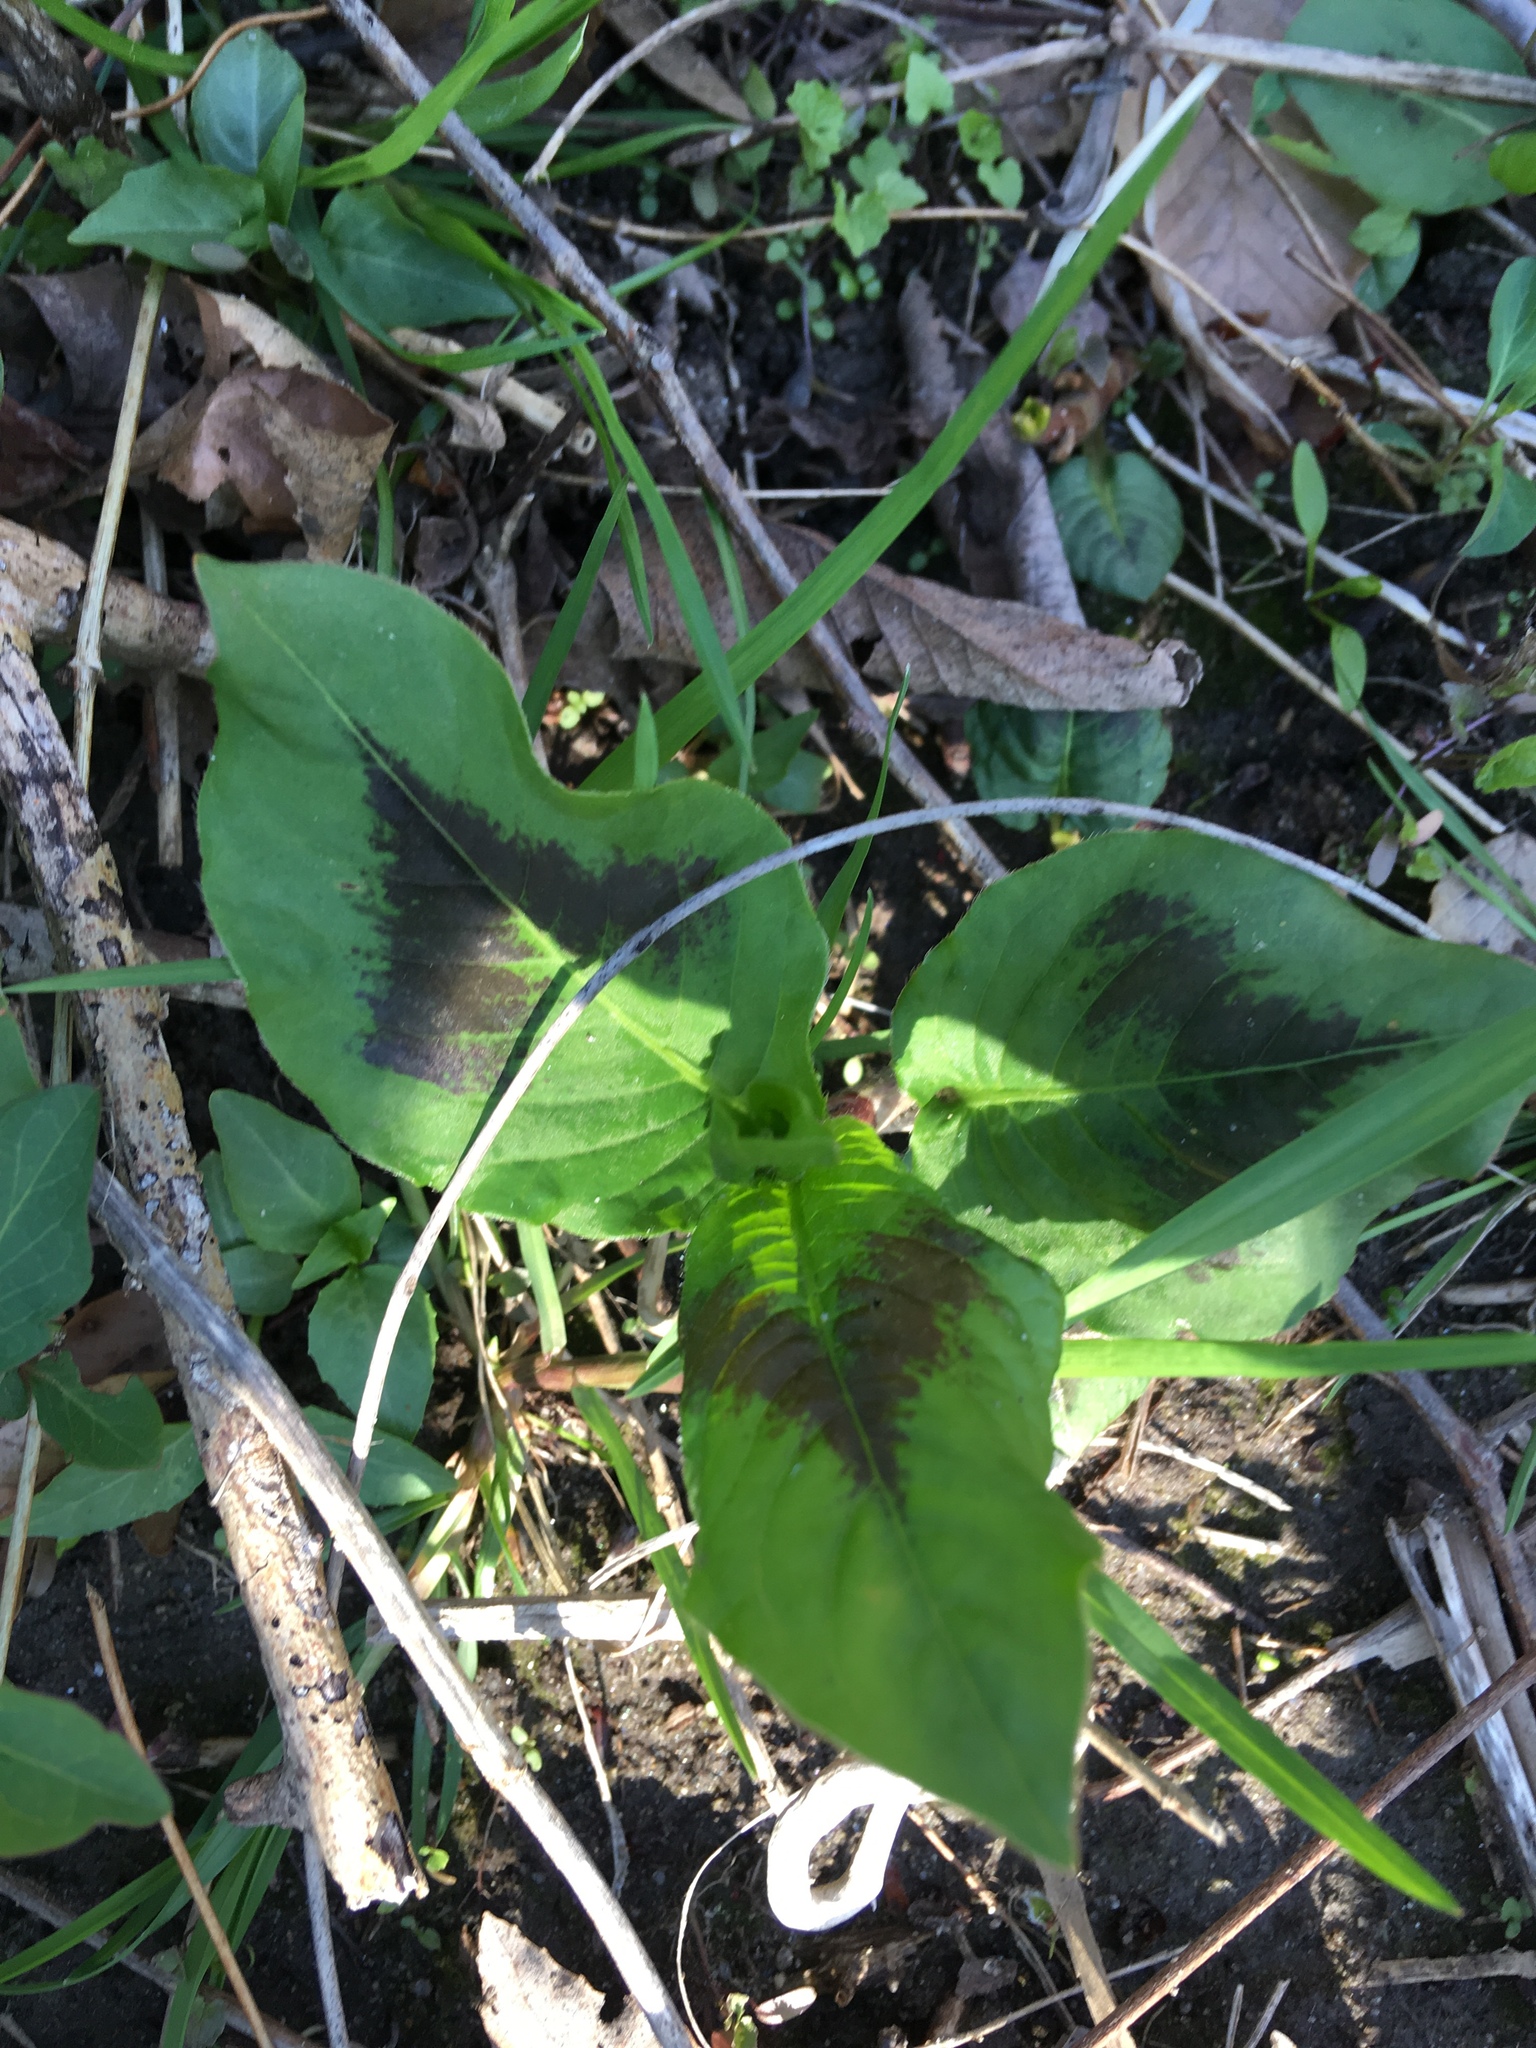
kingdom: Plantae
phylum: Tracheophyta
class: Magnoliopsida
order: Caryophyllales
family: Polygonaceae
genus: Persicaria
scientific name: Persicaria virginiana
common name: Jumpseed
